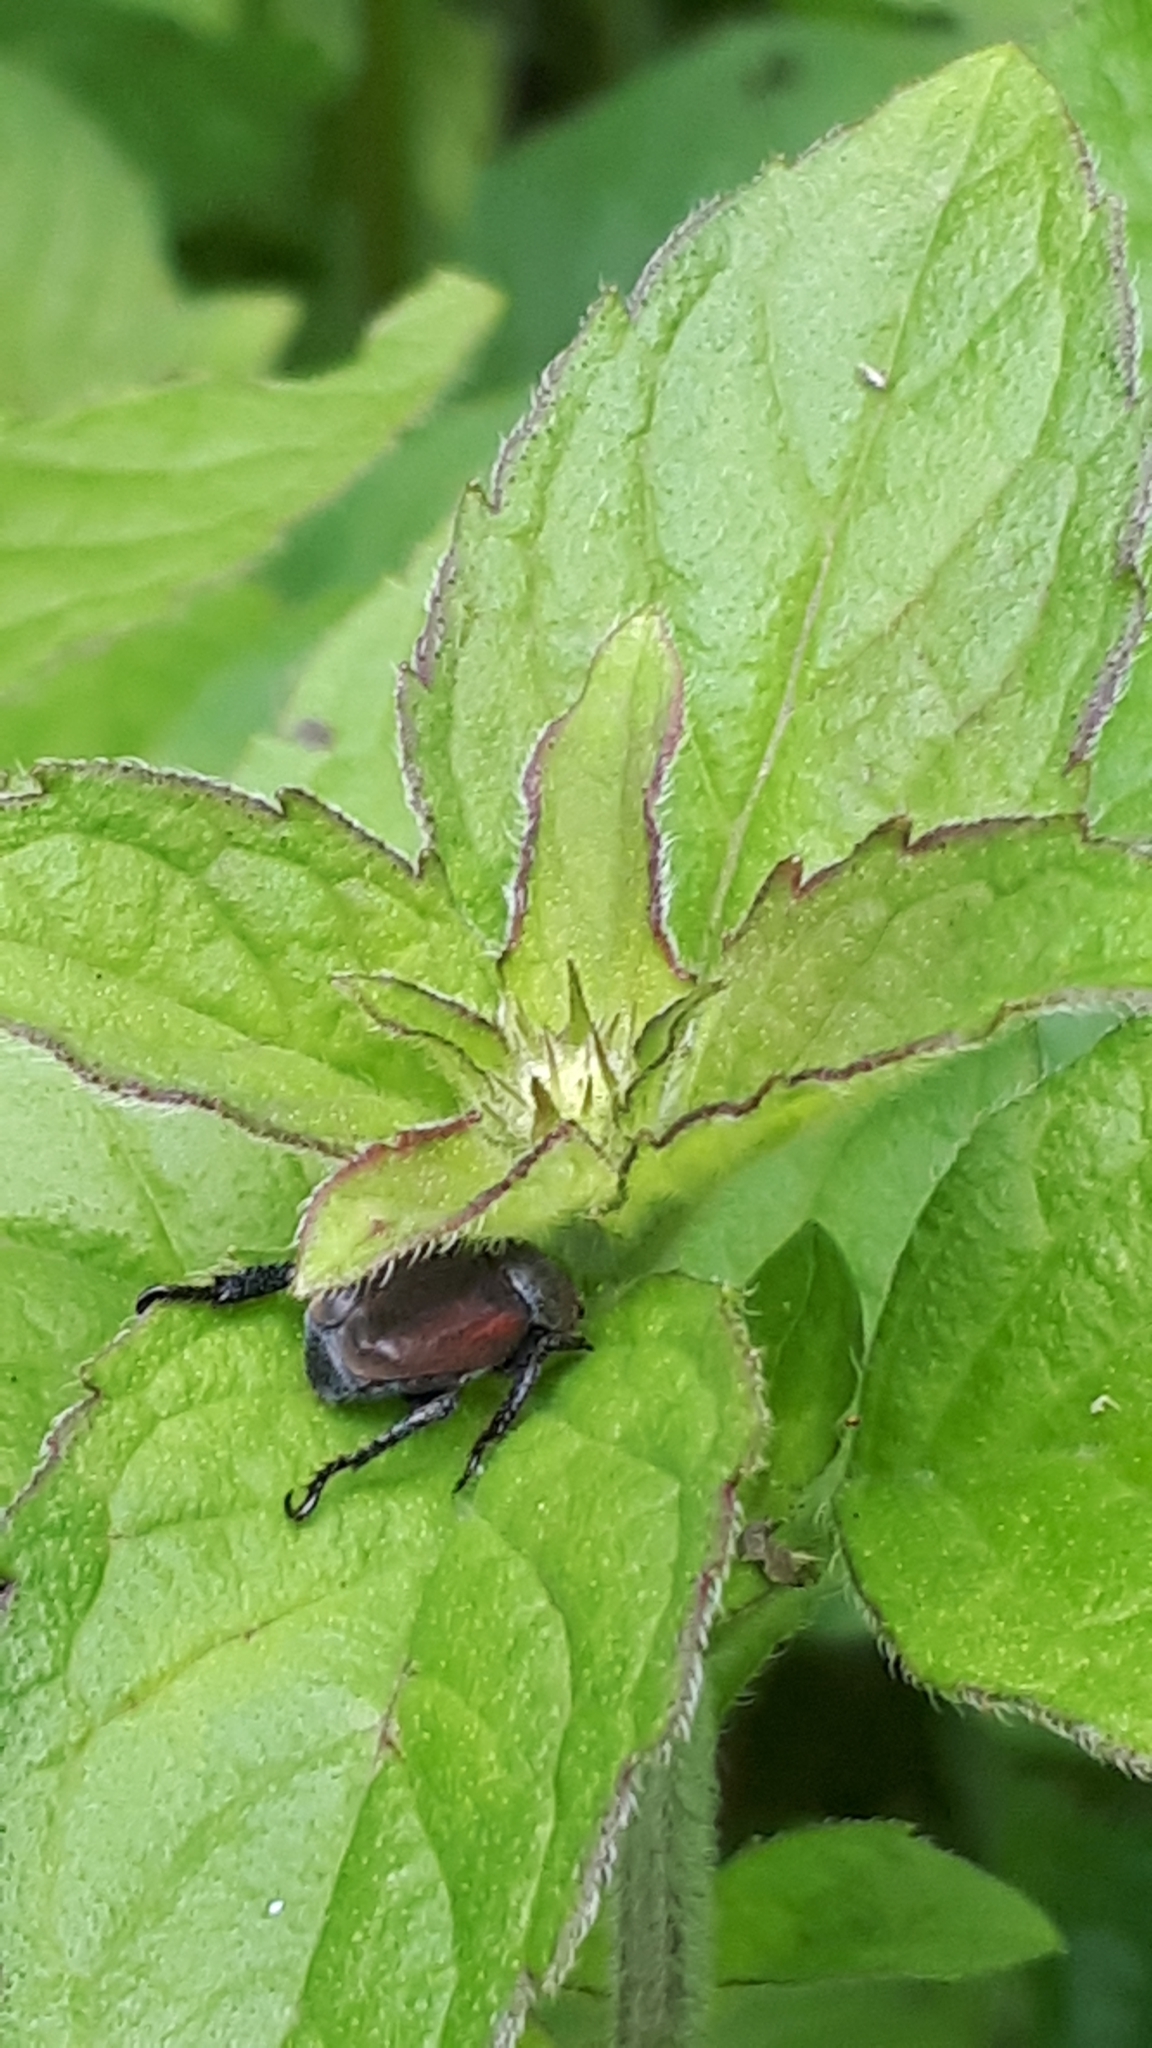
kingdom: Animalia
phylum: Arthropoda
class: Insecta
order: Coleoptera
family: Scarabaeidae
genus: Hoplia
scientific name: Hoplia philanthus
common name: Welsh chafer
